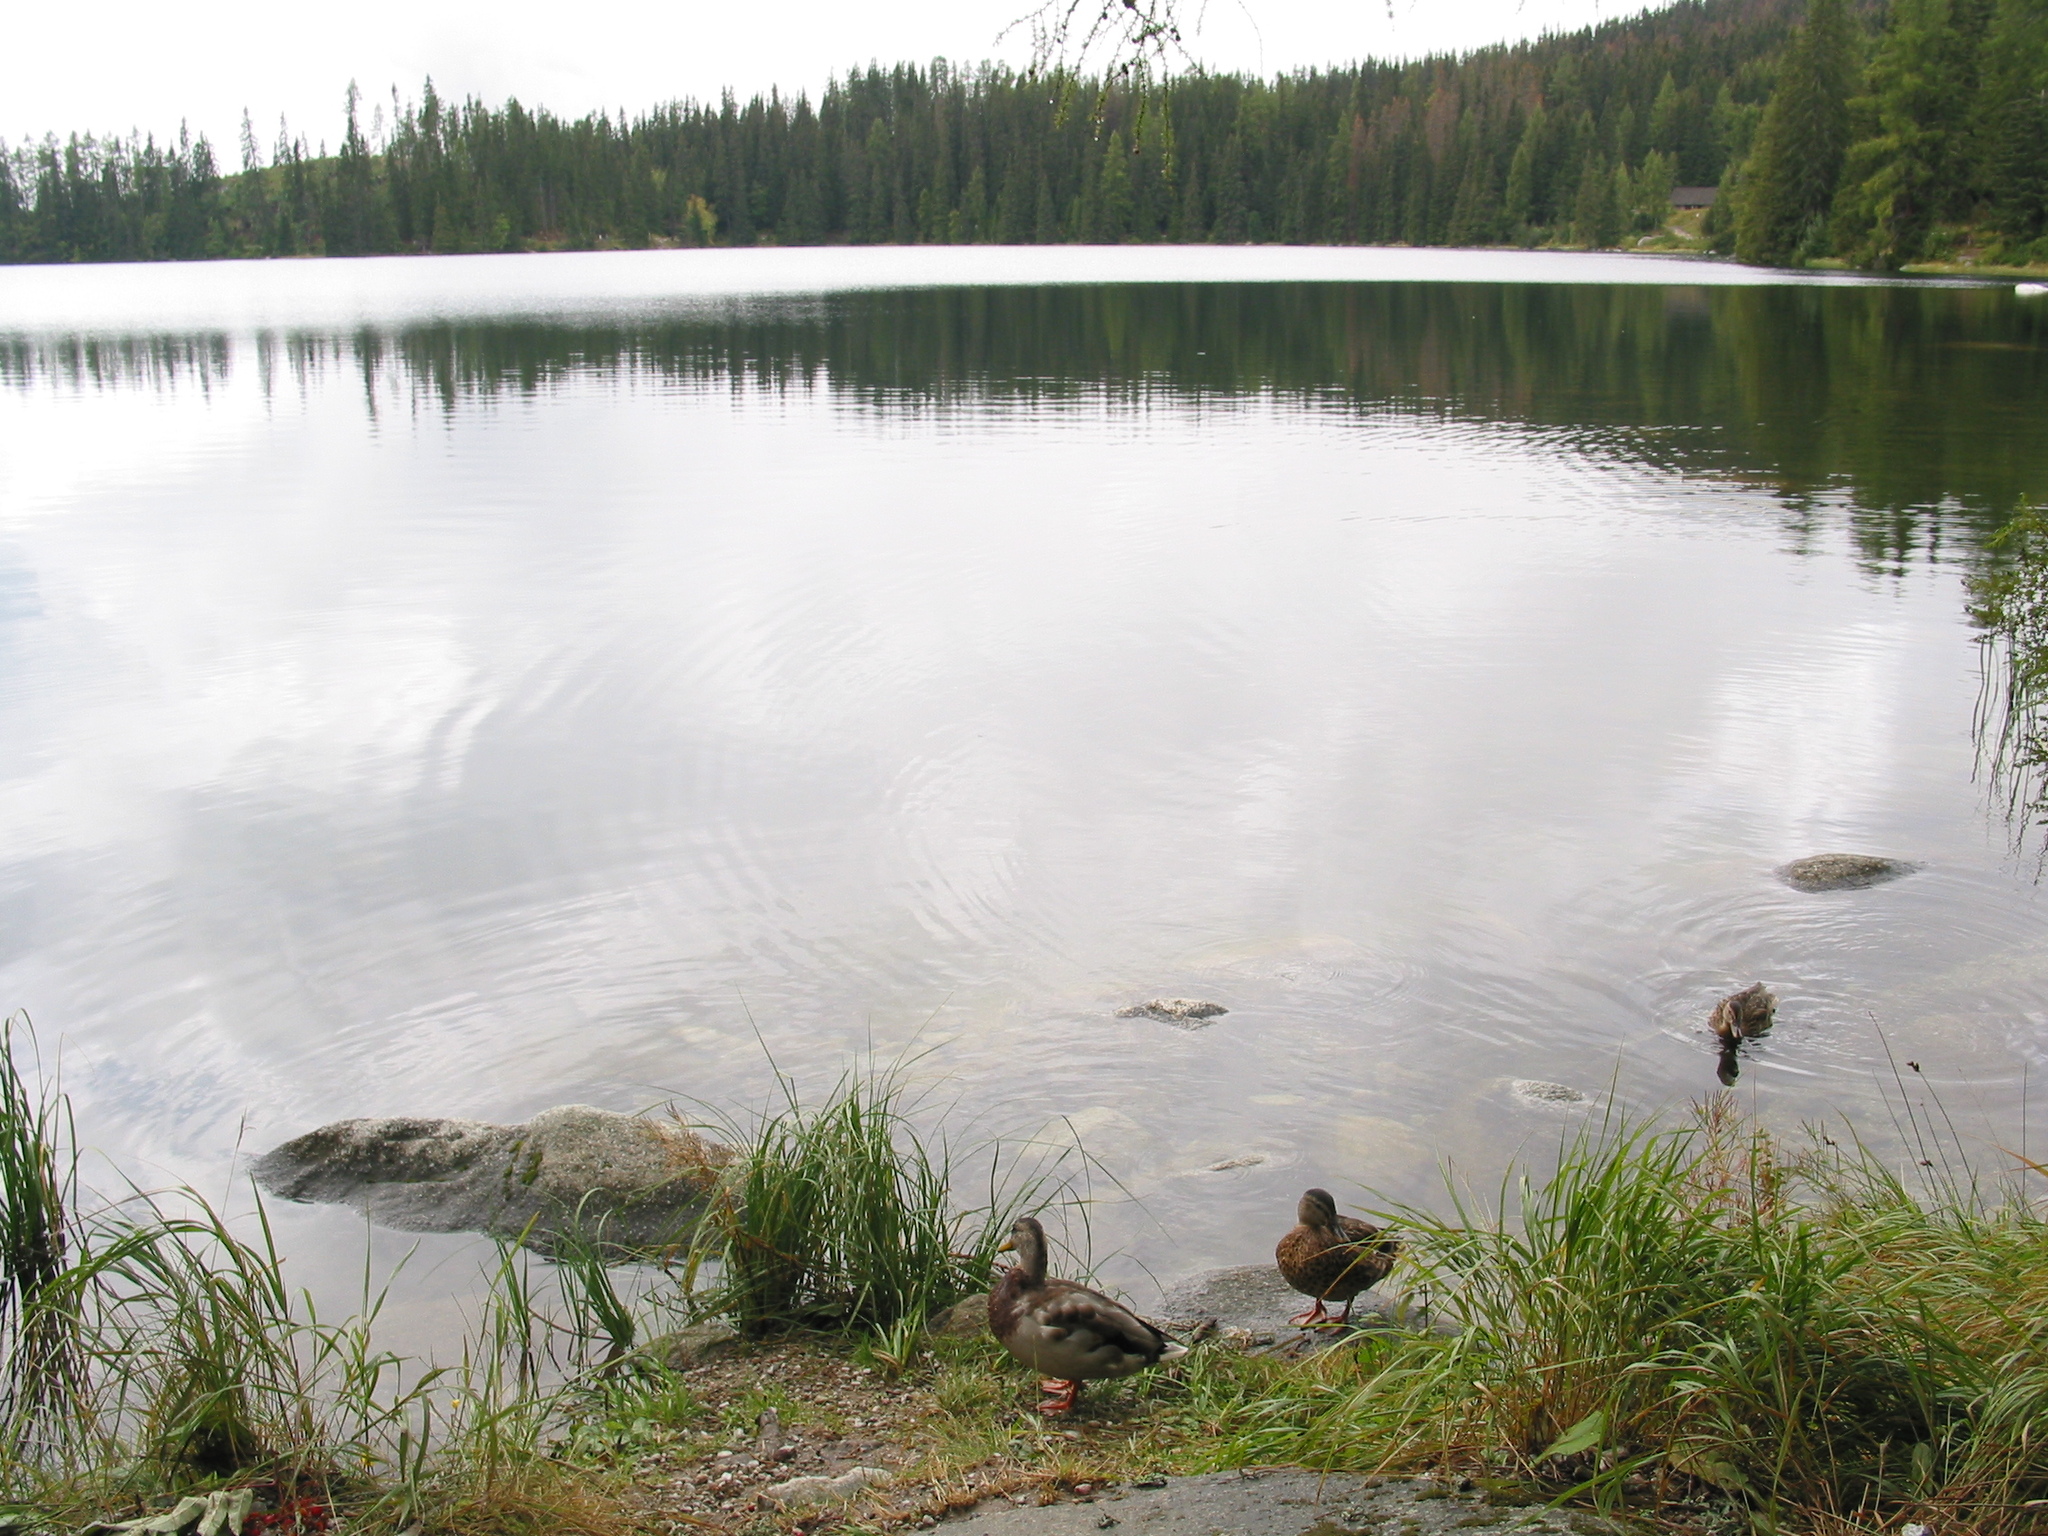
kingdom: Animalia
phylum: Chordata
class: Aves
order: Anseriformes
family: Anatidae
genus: Anas
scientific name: Anas platyrhynchos
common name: Mallard
